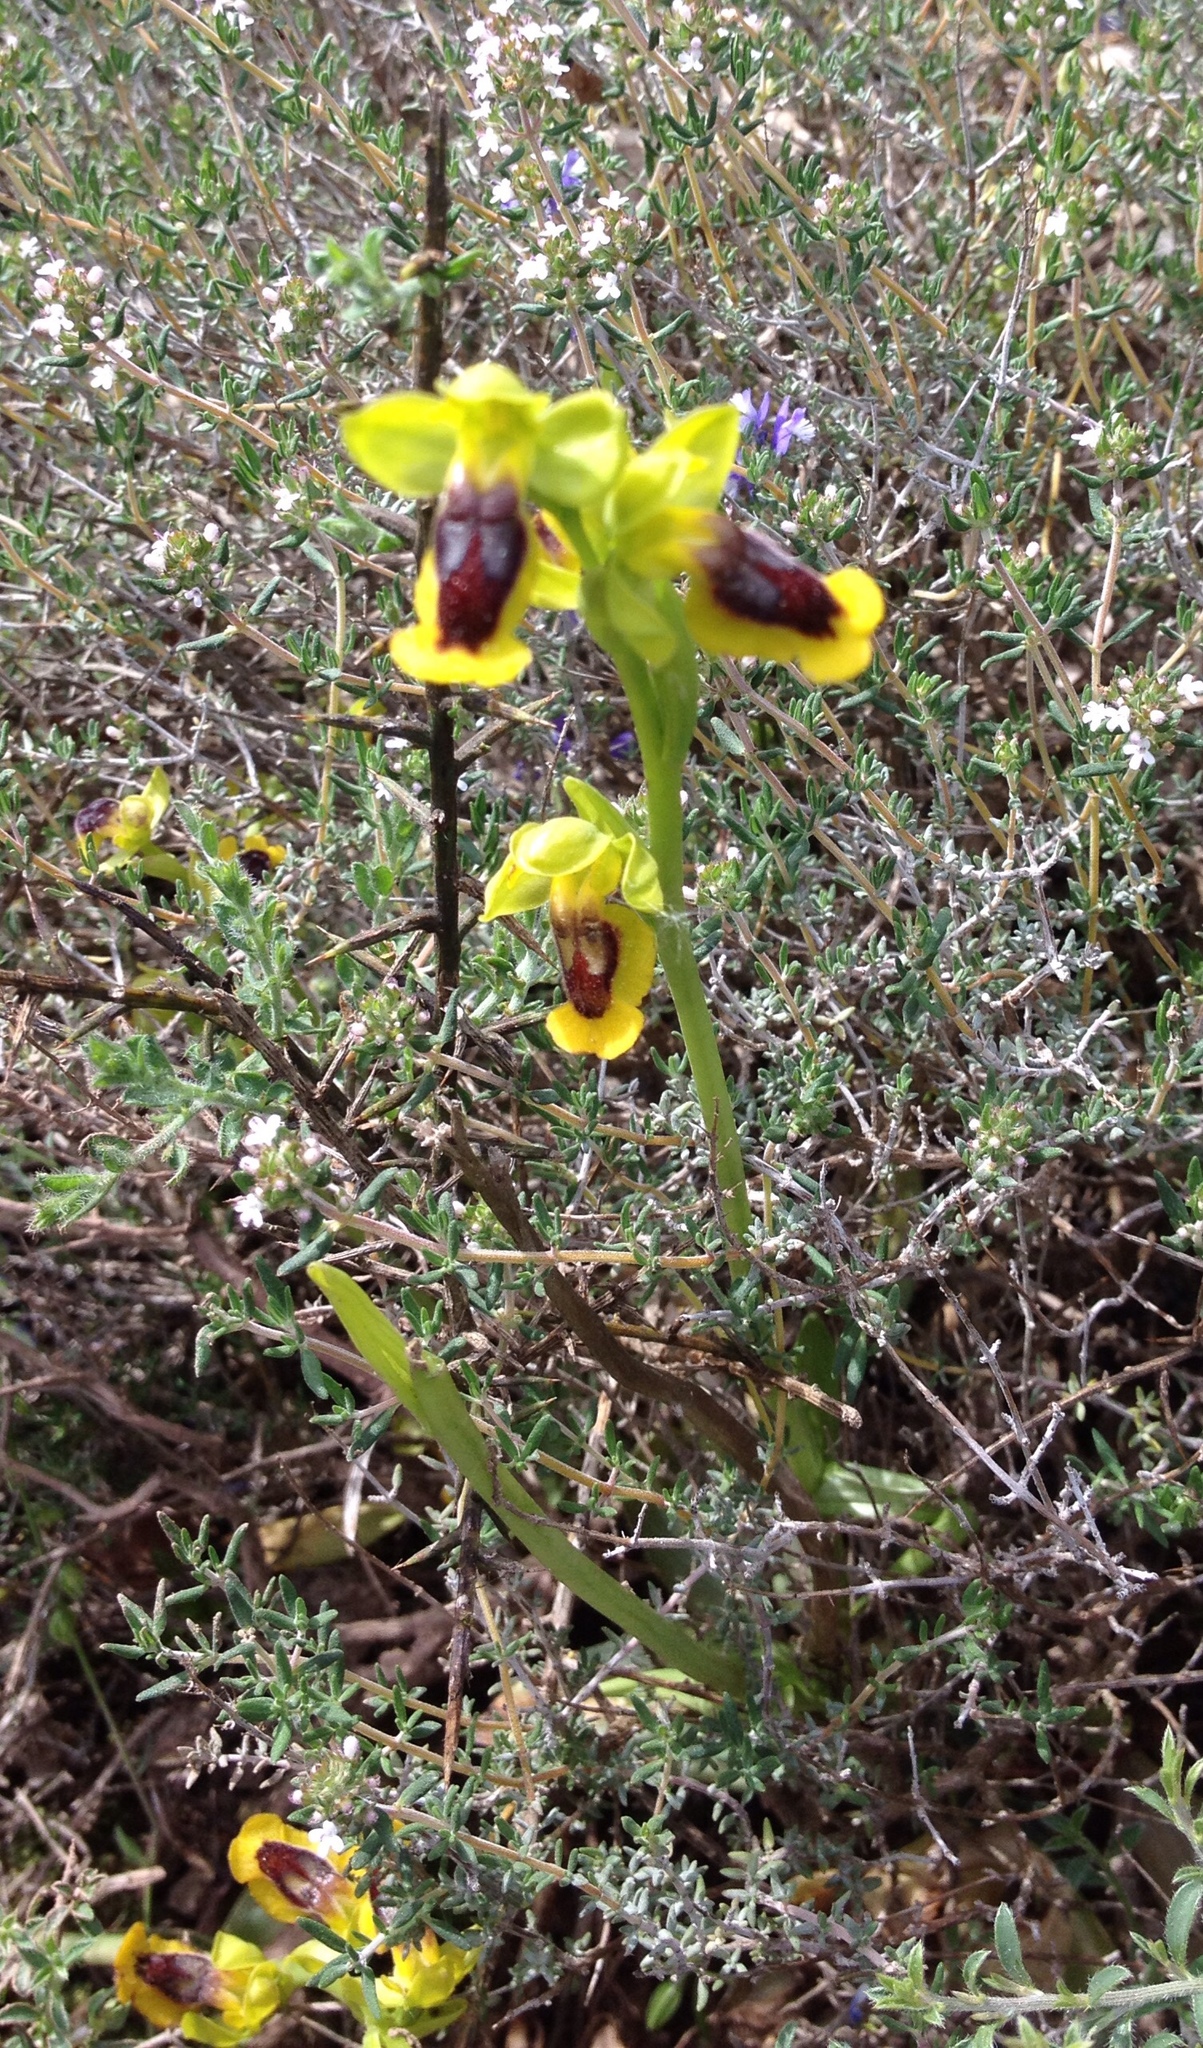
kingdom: Plantae
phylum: Tracheophyta
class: Liliopsida
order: Asparagales
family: Orchidaceae
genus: Ophrys
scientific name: Ophrys lutea
